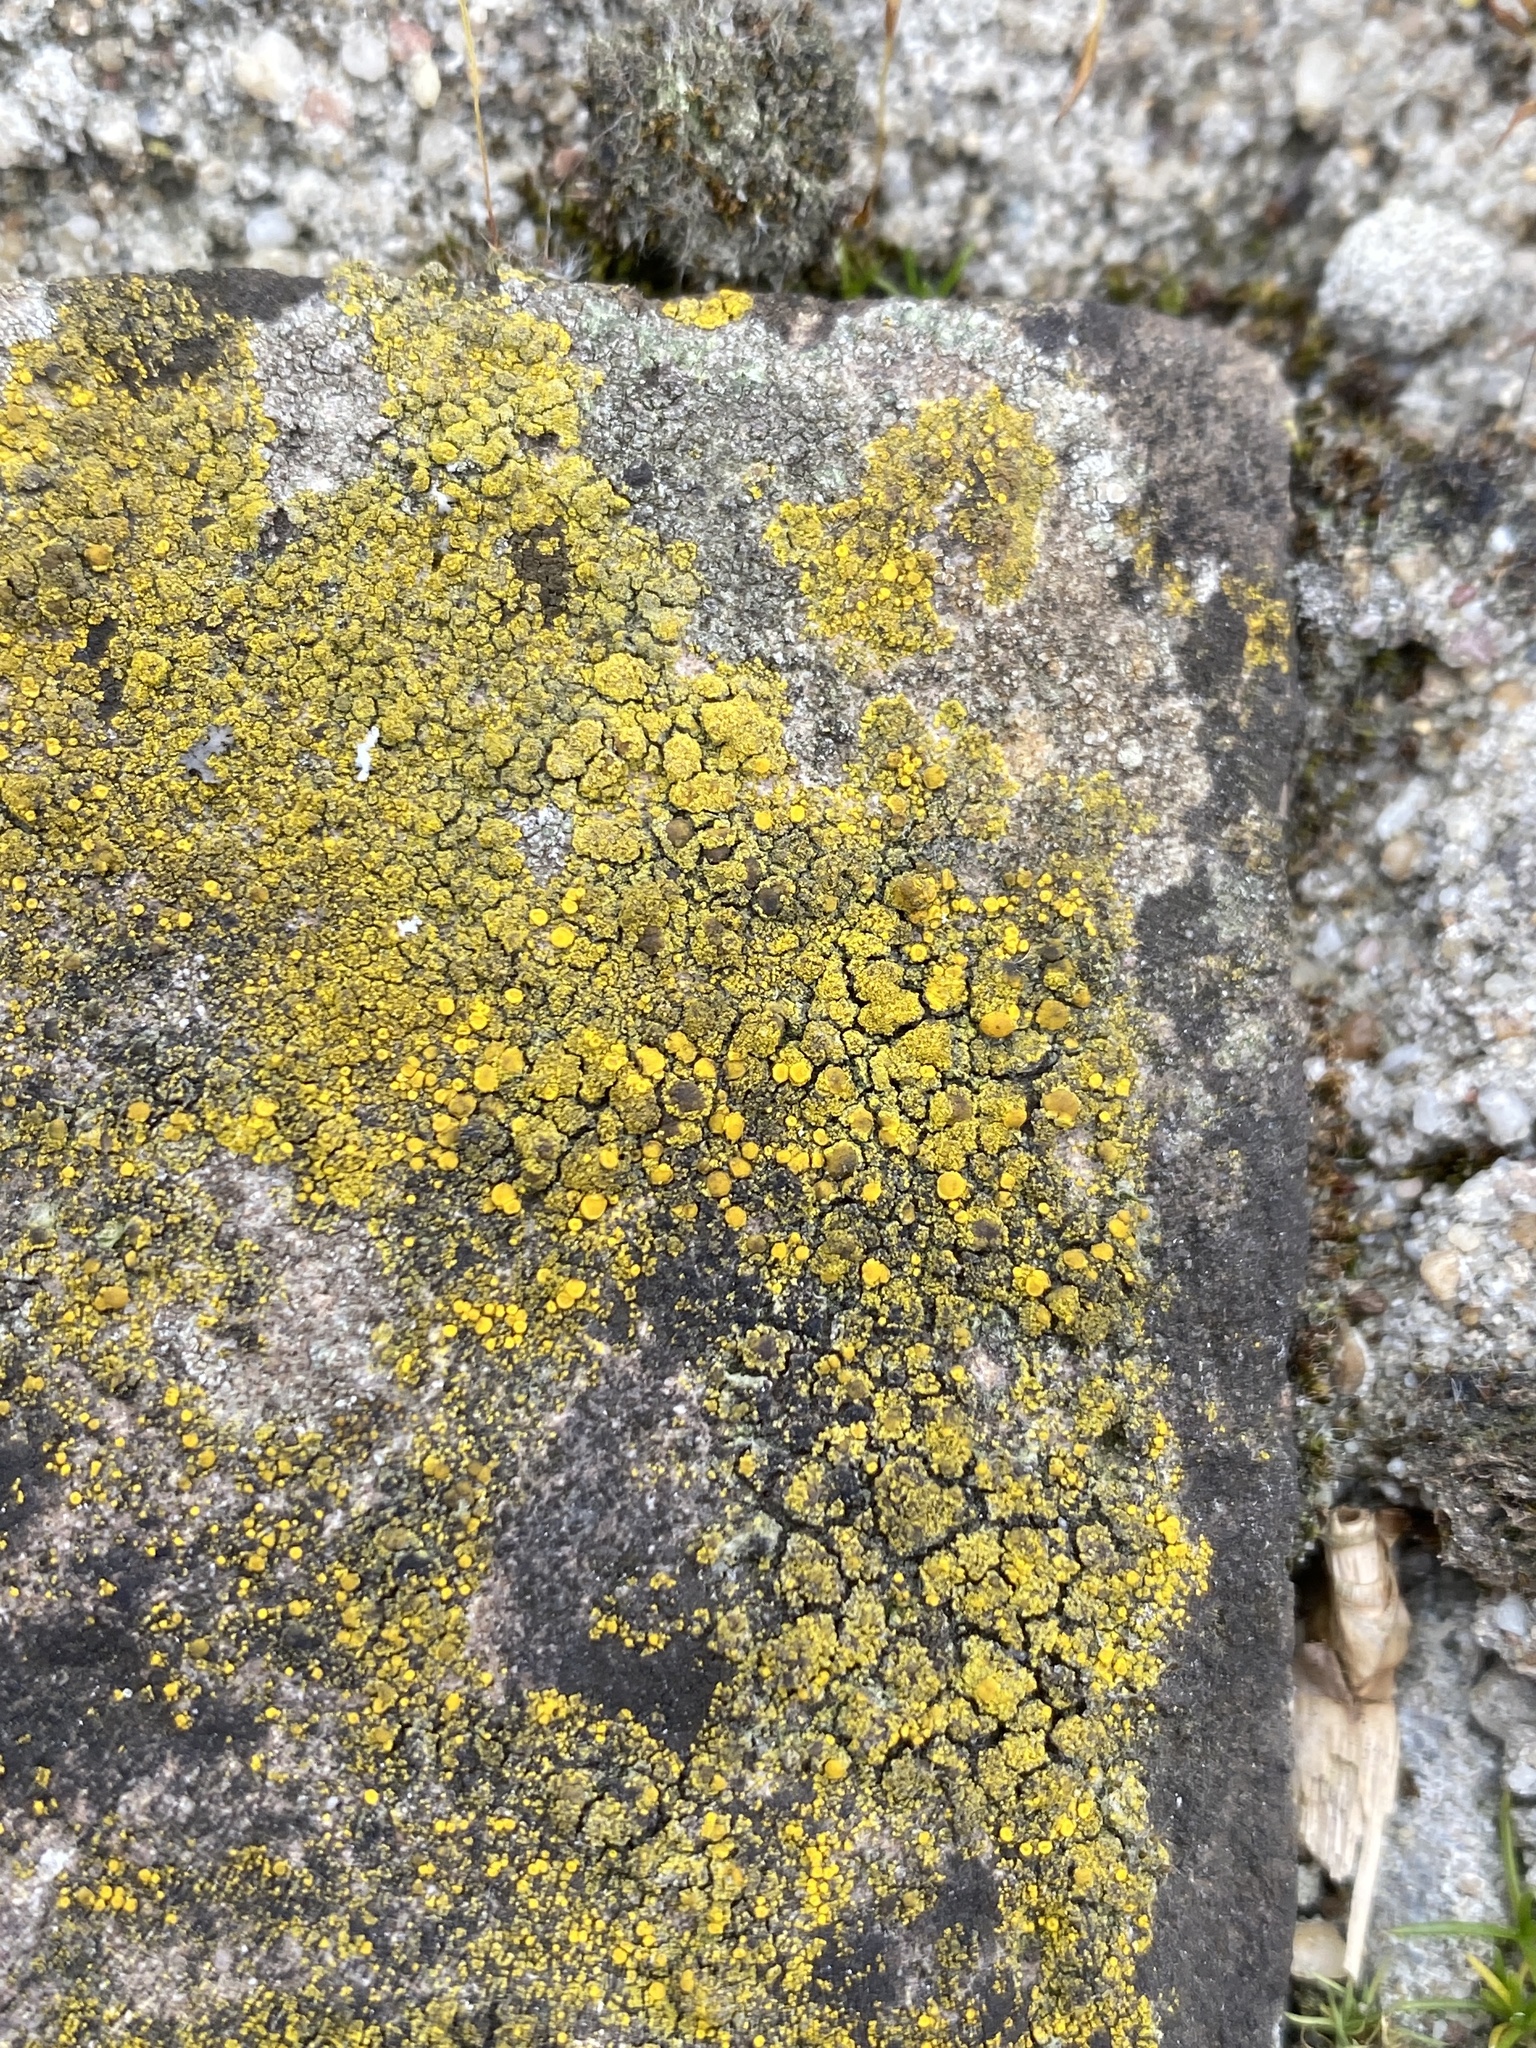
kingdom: Fungi
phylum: Ascomycota
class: Candelariomycetes
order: Candelariales
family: Candelariaceae
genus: Candelariella
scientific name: Candelariella vitellina
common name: Common goldspeck
